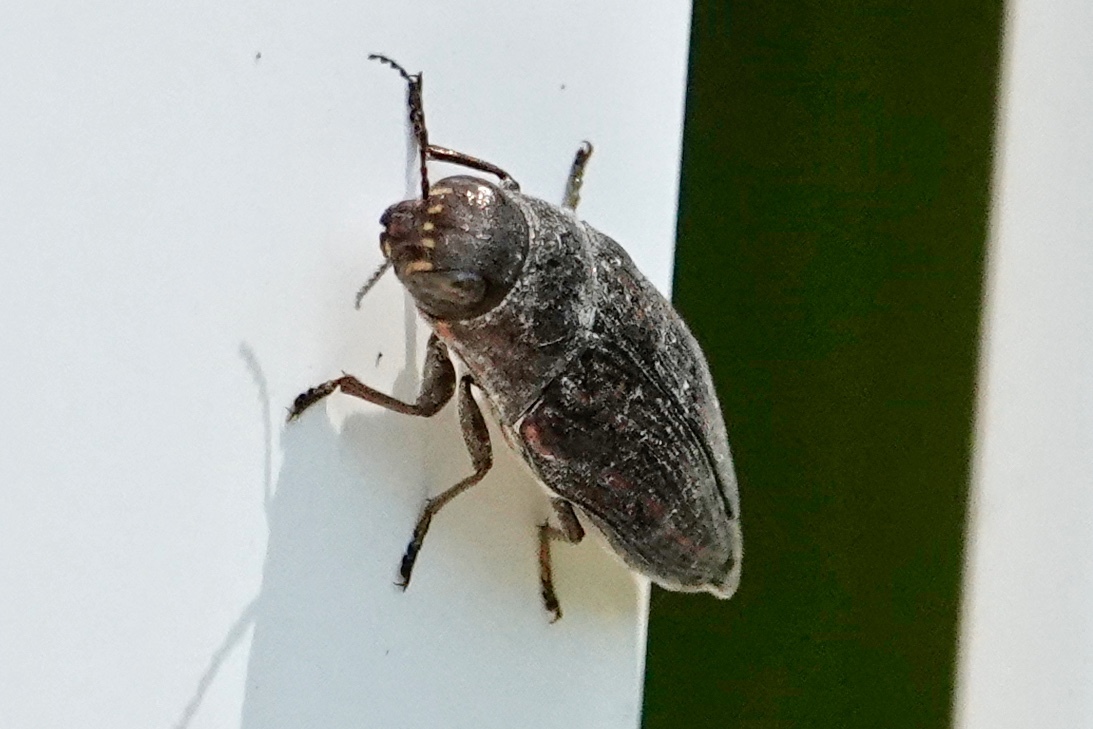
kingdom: Animalia
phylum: Arthropoda
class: Insecta
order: Coleoptera
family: Buprestidae
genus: Buprestis
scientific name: Buprestis lineata
